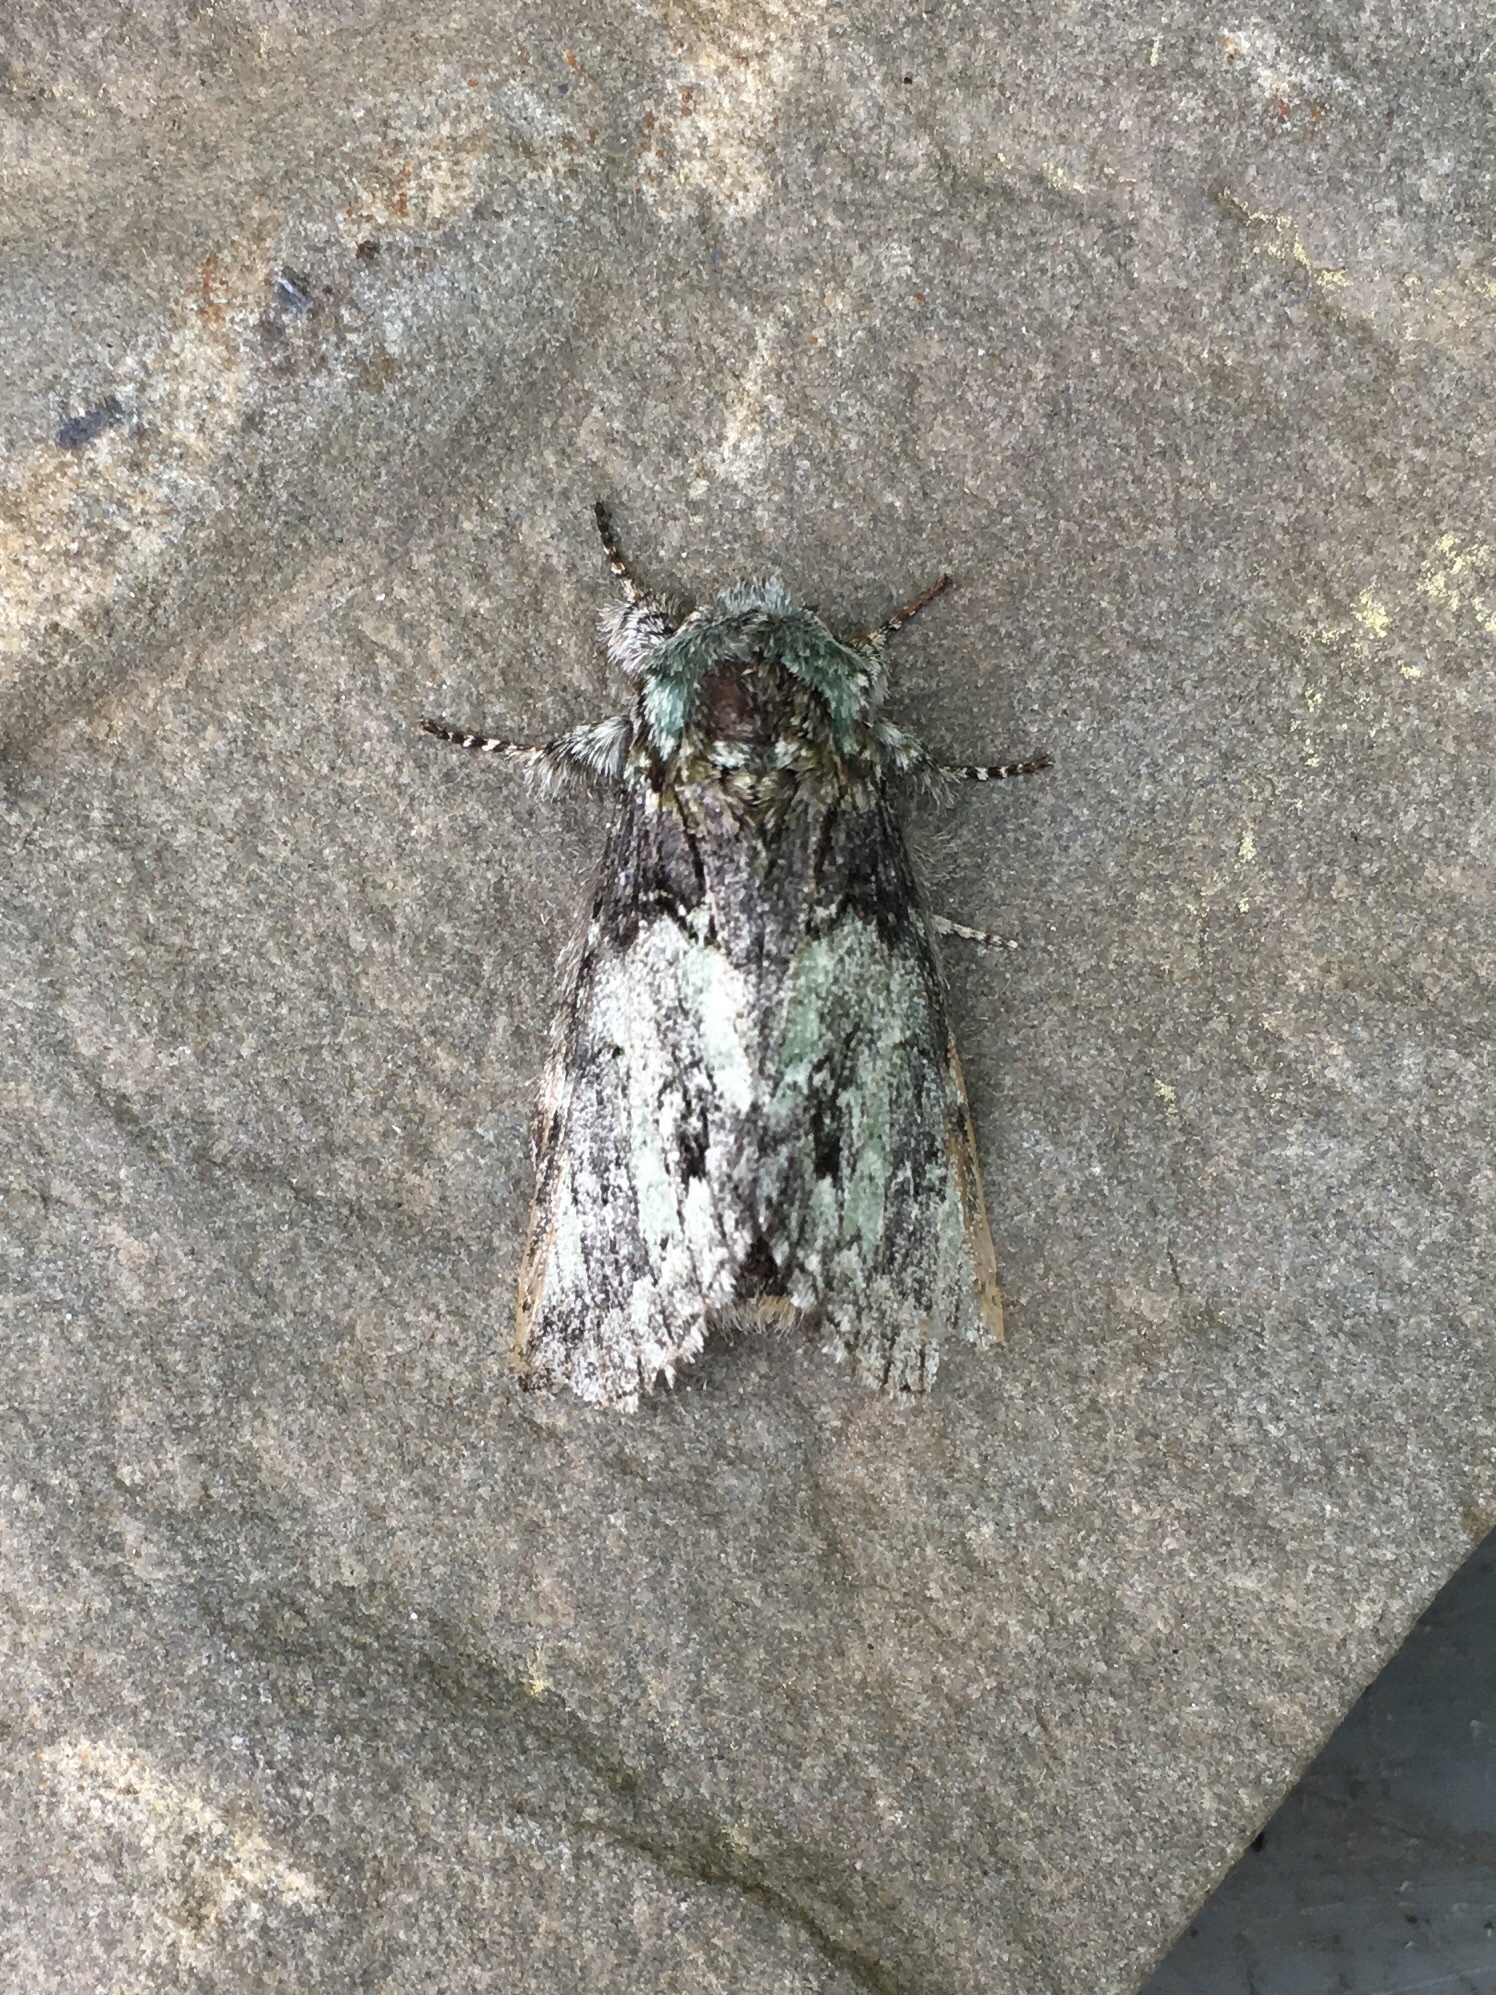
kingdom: Animalia
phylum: Arthropoda
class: Insecta
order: Lepidoptera
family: Notodontidae
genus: Macrurocampa
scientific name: Macrurocampa marthesia
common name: Mottled prominent
